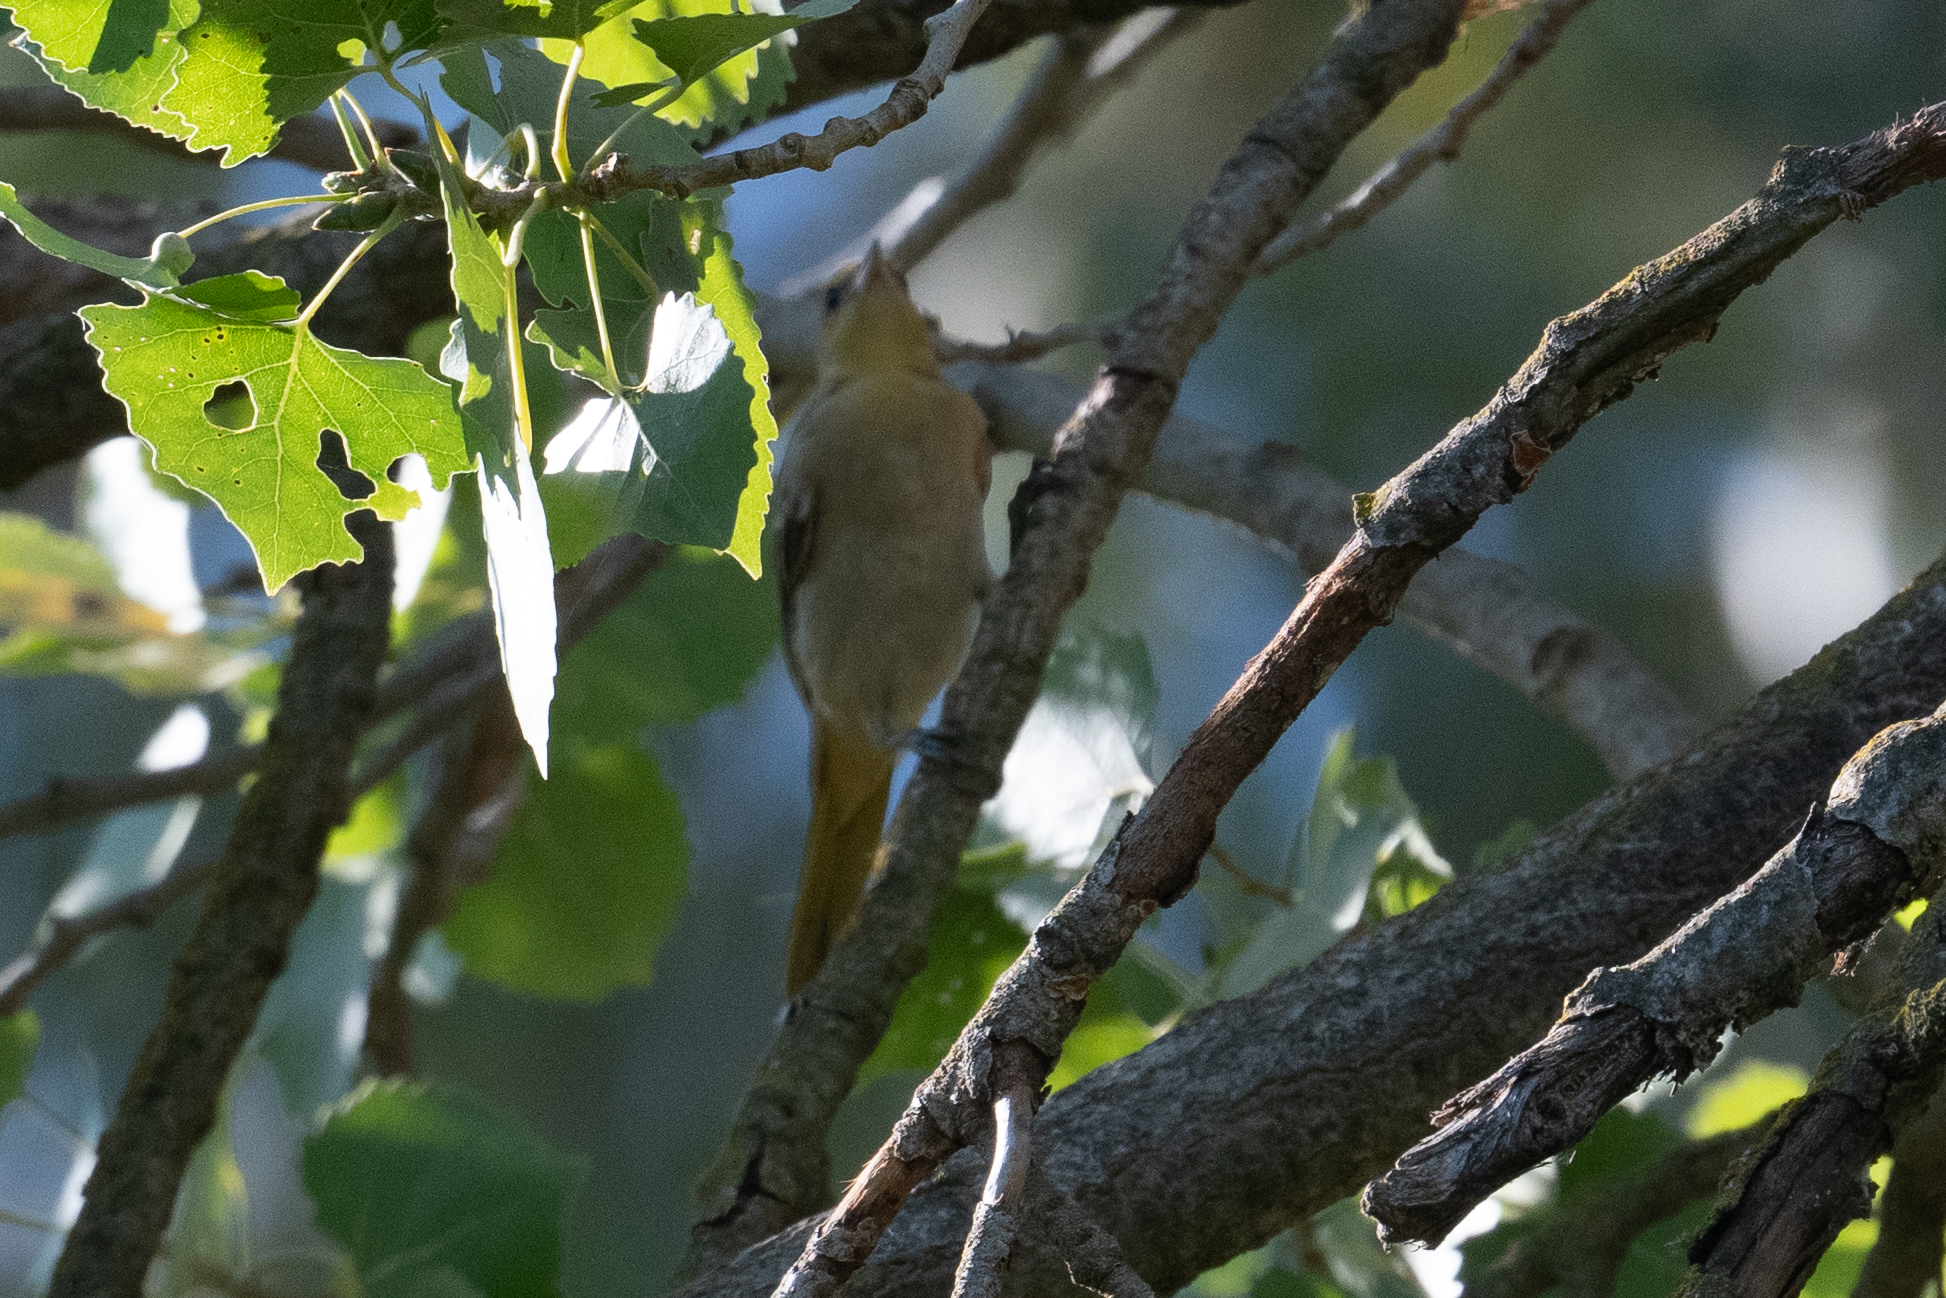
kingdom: Animalia
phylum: Chordata
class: Aves
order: Passeriformes
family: Icteridae
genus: Icterus
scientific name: Icterus bullockii
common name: Bullock's oriole
